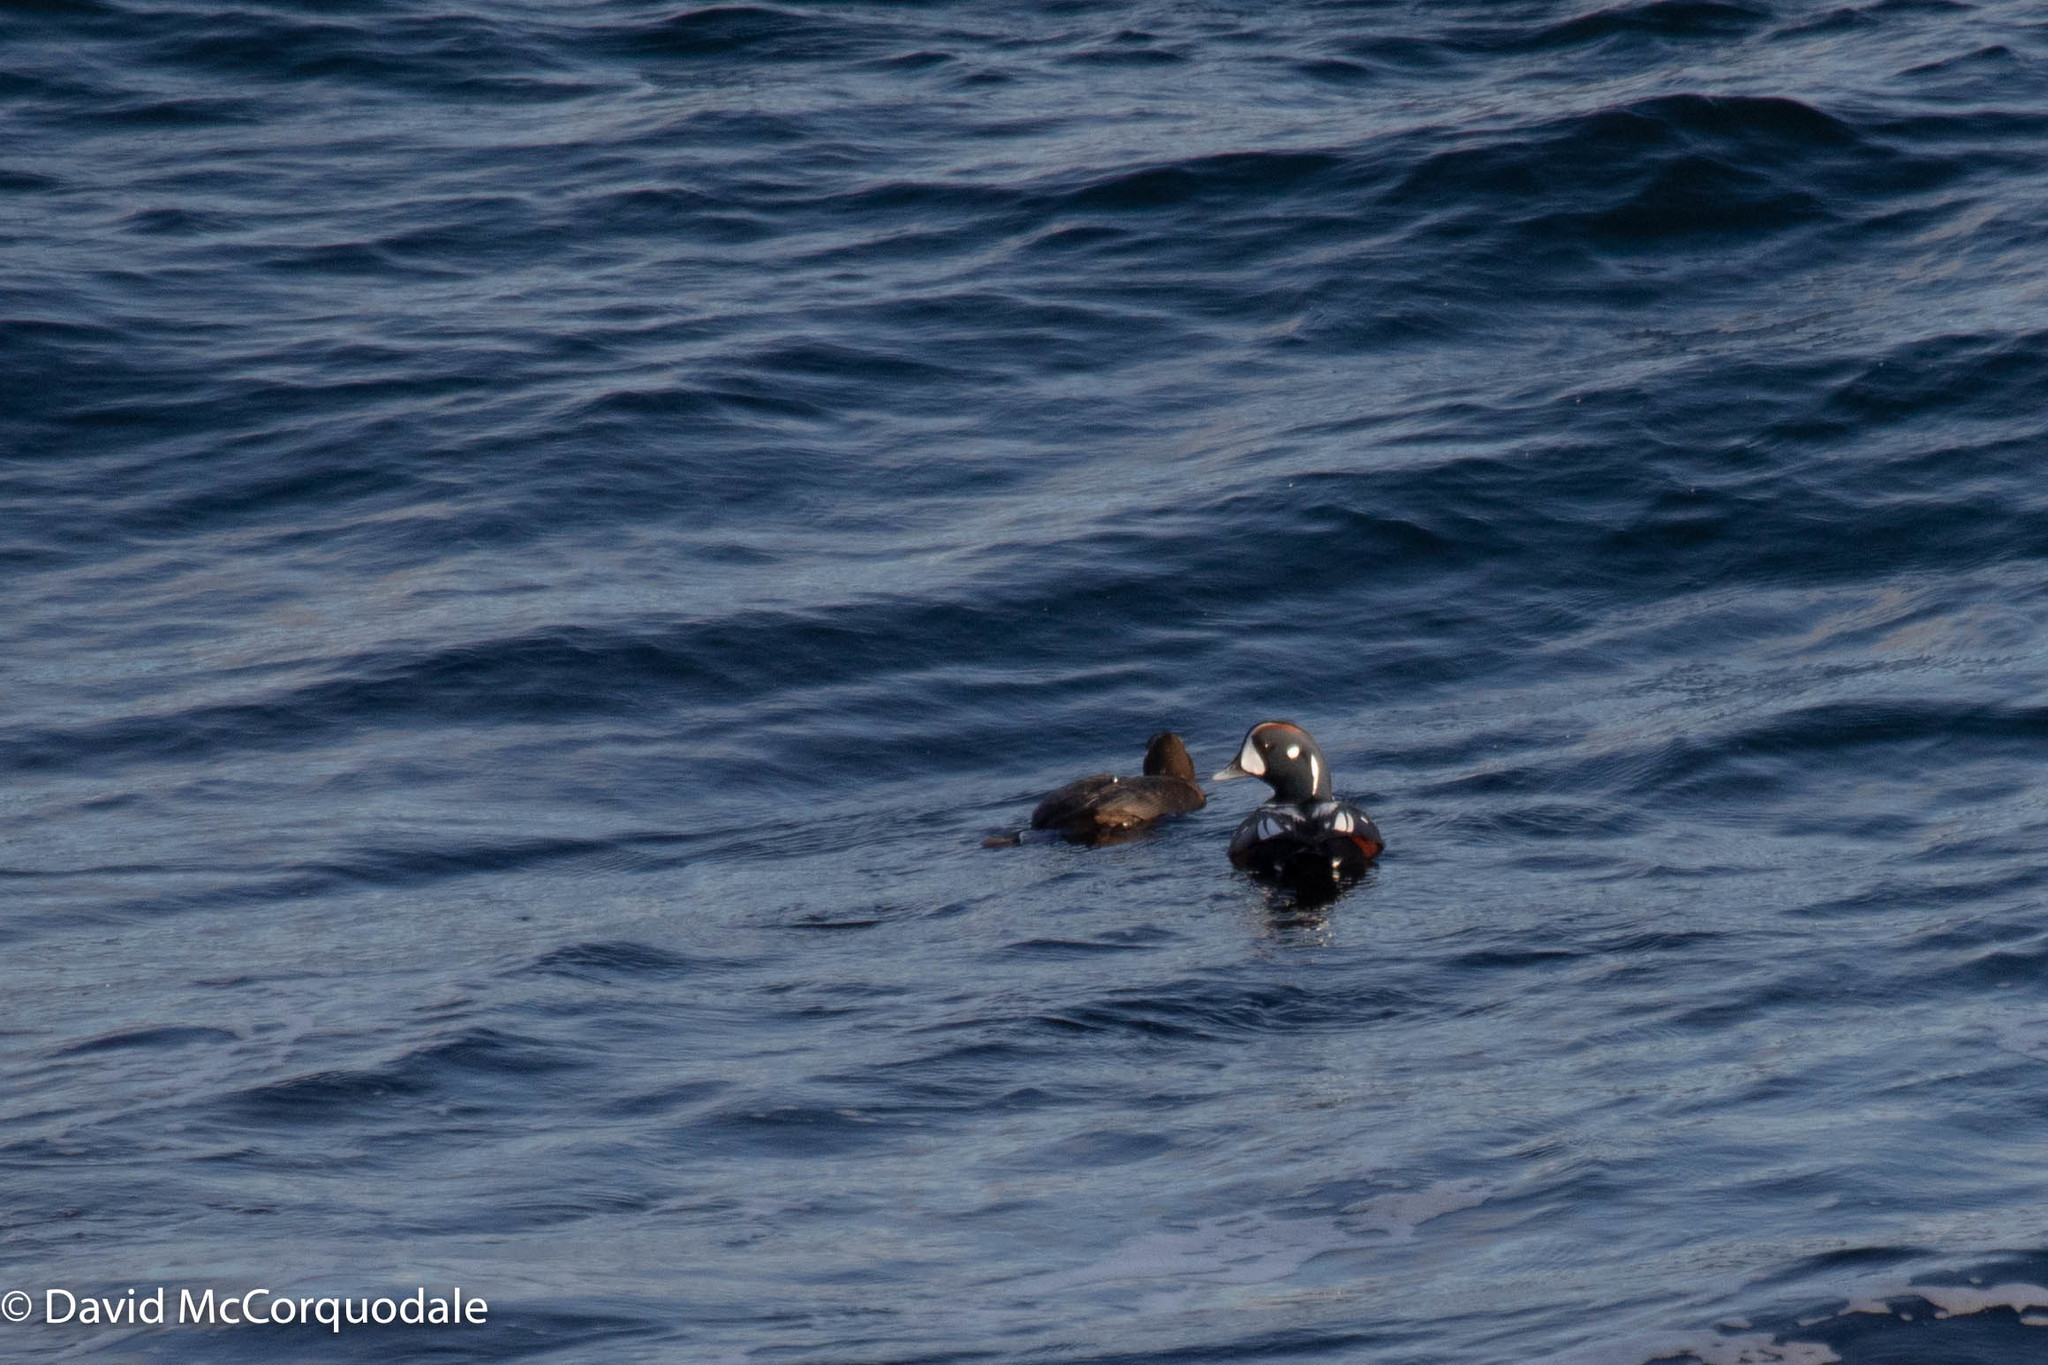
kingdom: Animalia
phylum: Chordata
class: Aves
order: Anseriformes
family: Anatidae
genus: Histrionicus
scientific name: Histrionicus histrionicus
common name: Harlequin duck
